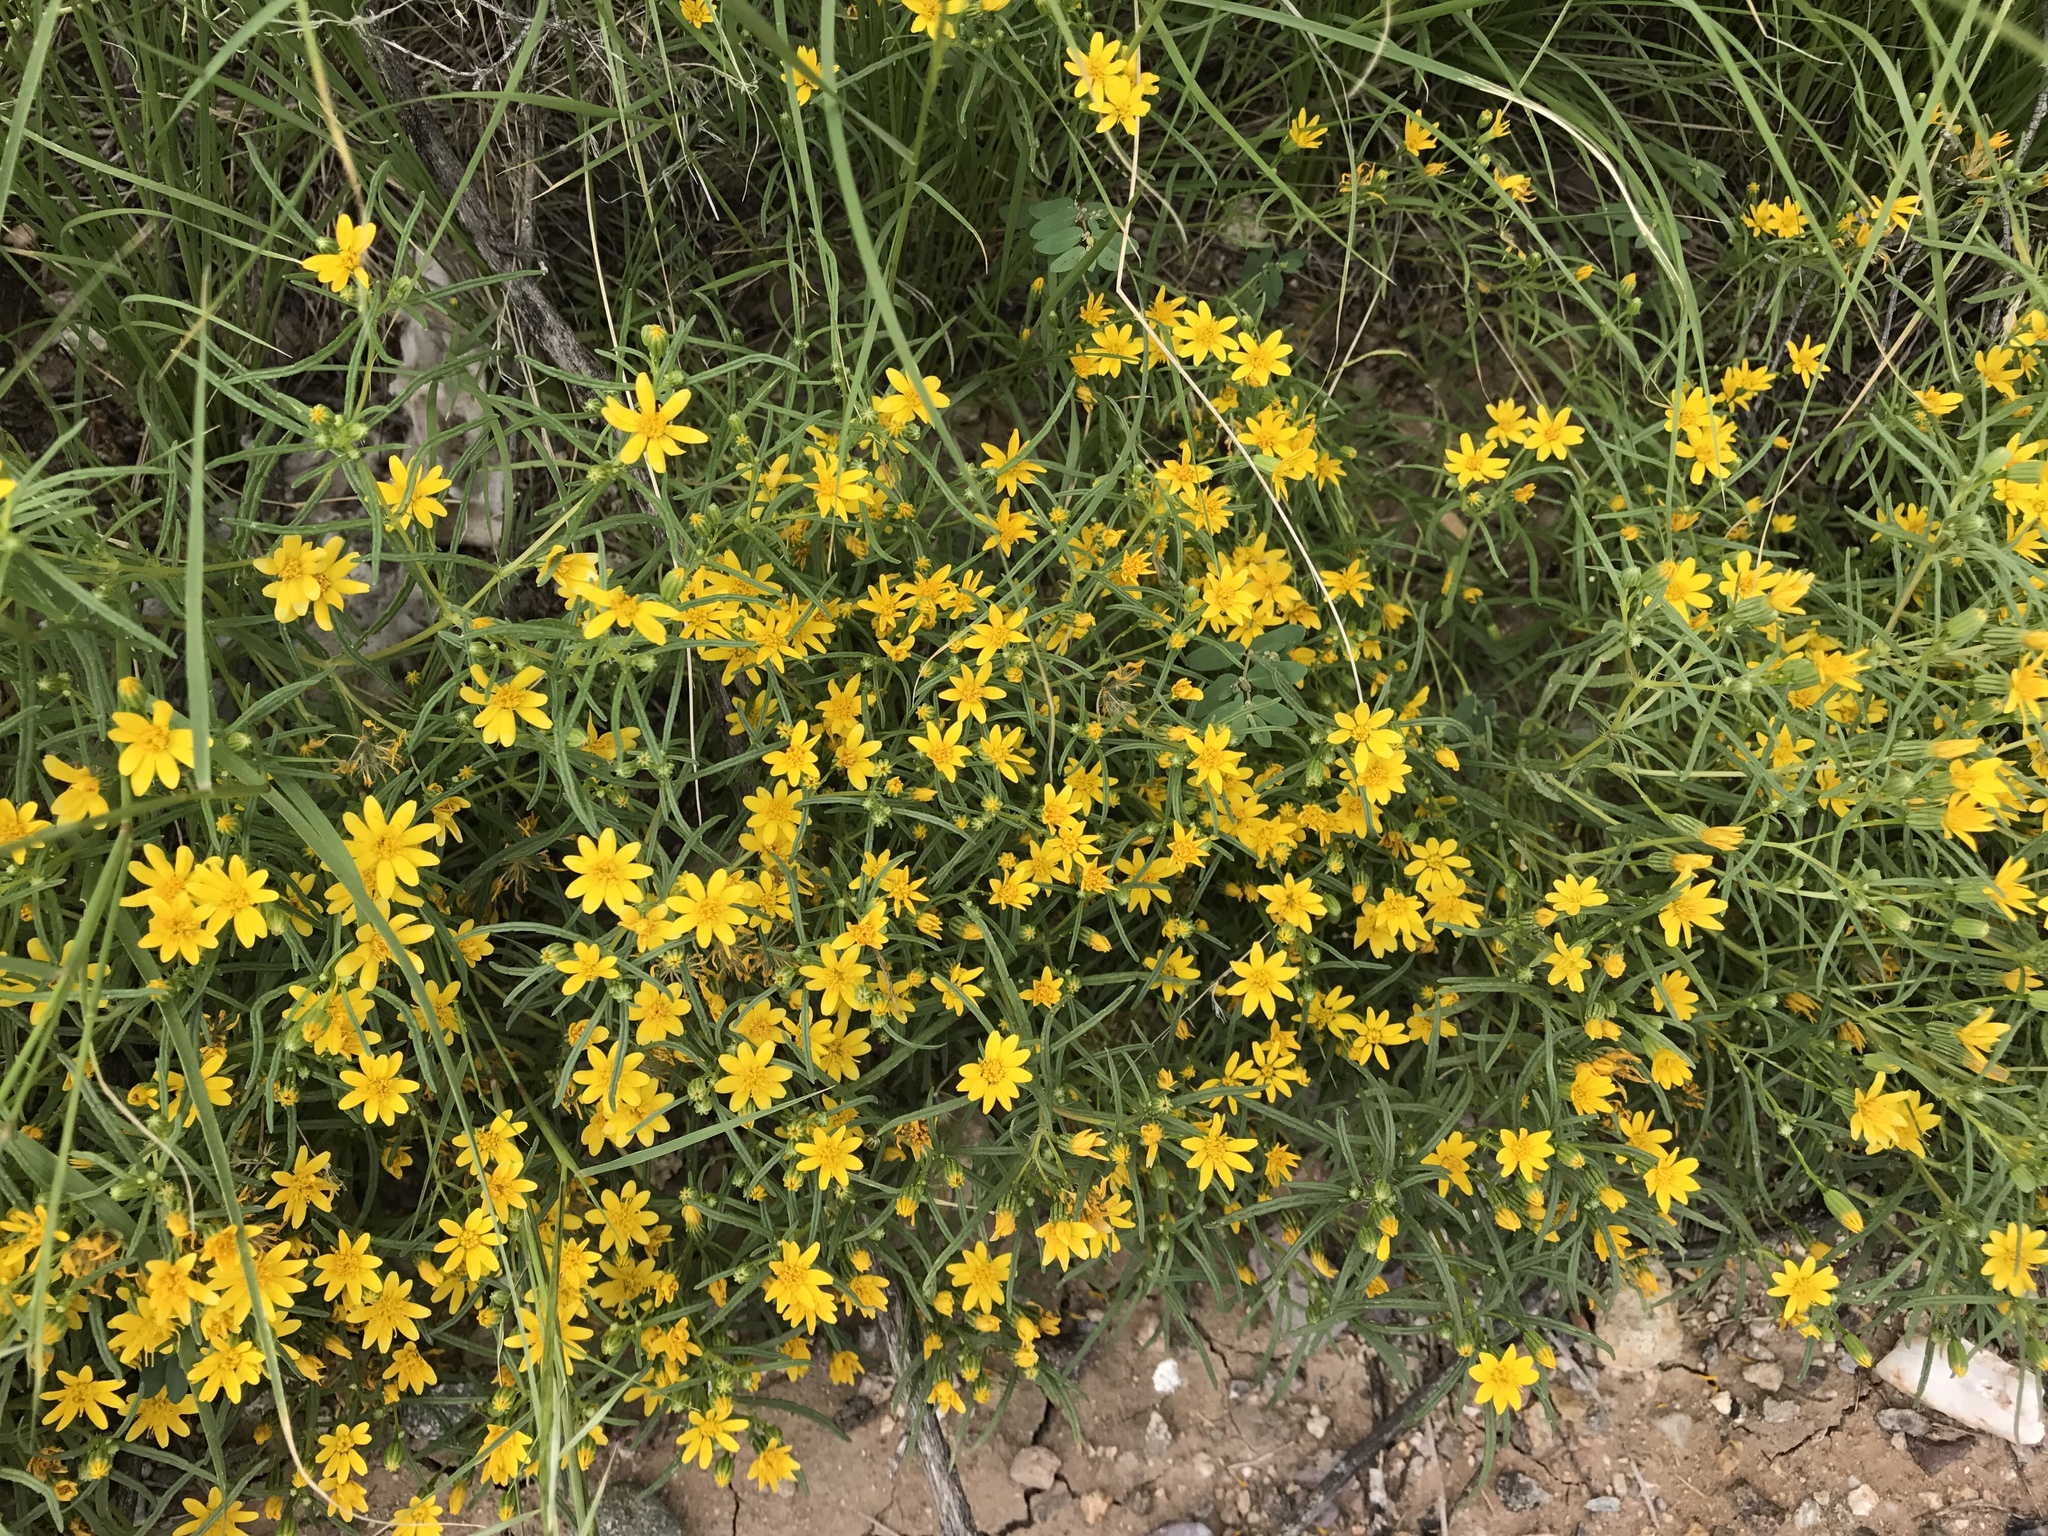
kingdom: Plantae
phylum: Tracheophyta
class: Magnoliopsida
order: Asterales
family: Asteraceae
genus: Pectis
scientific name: Pectis papposa
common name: Many-bristle chinchweed
